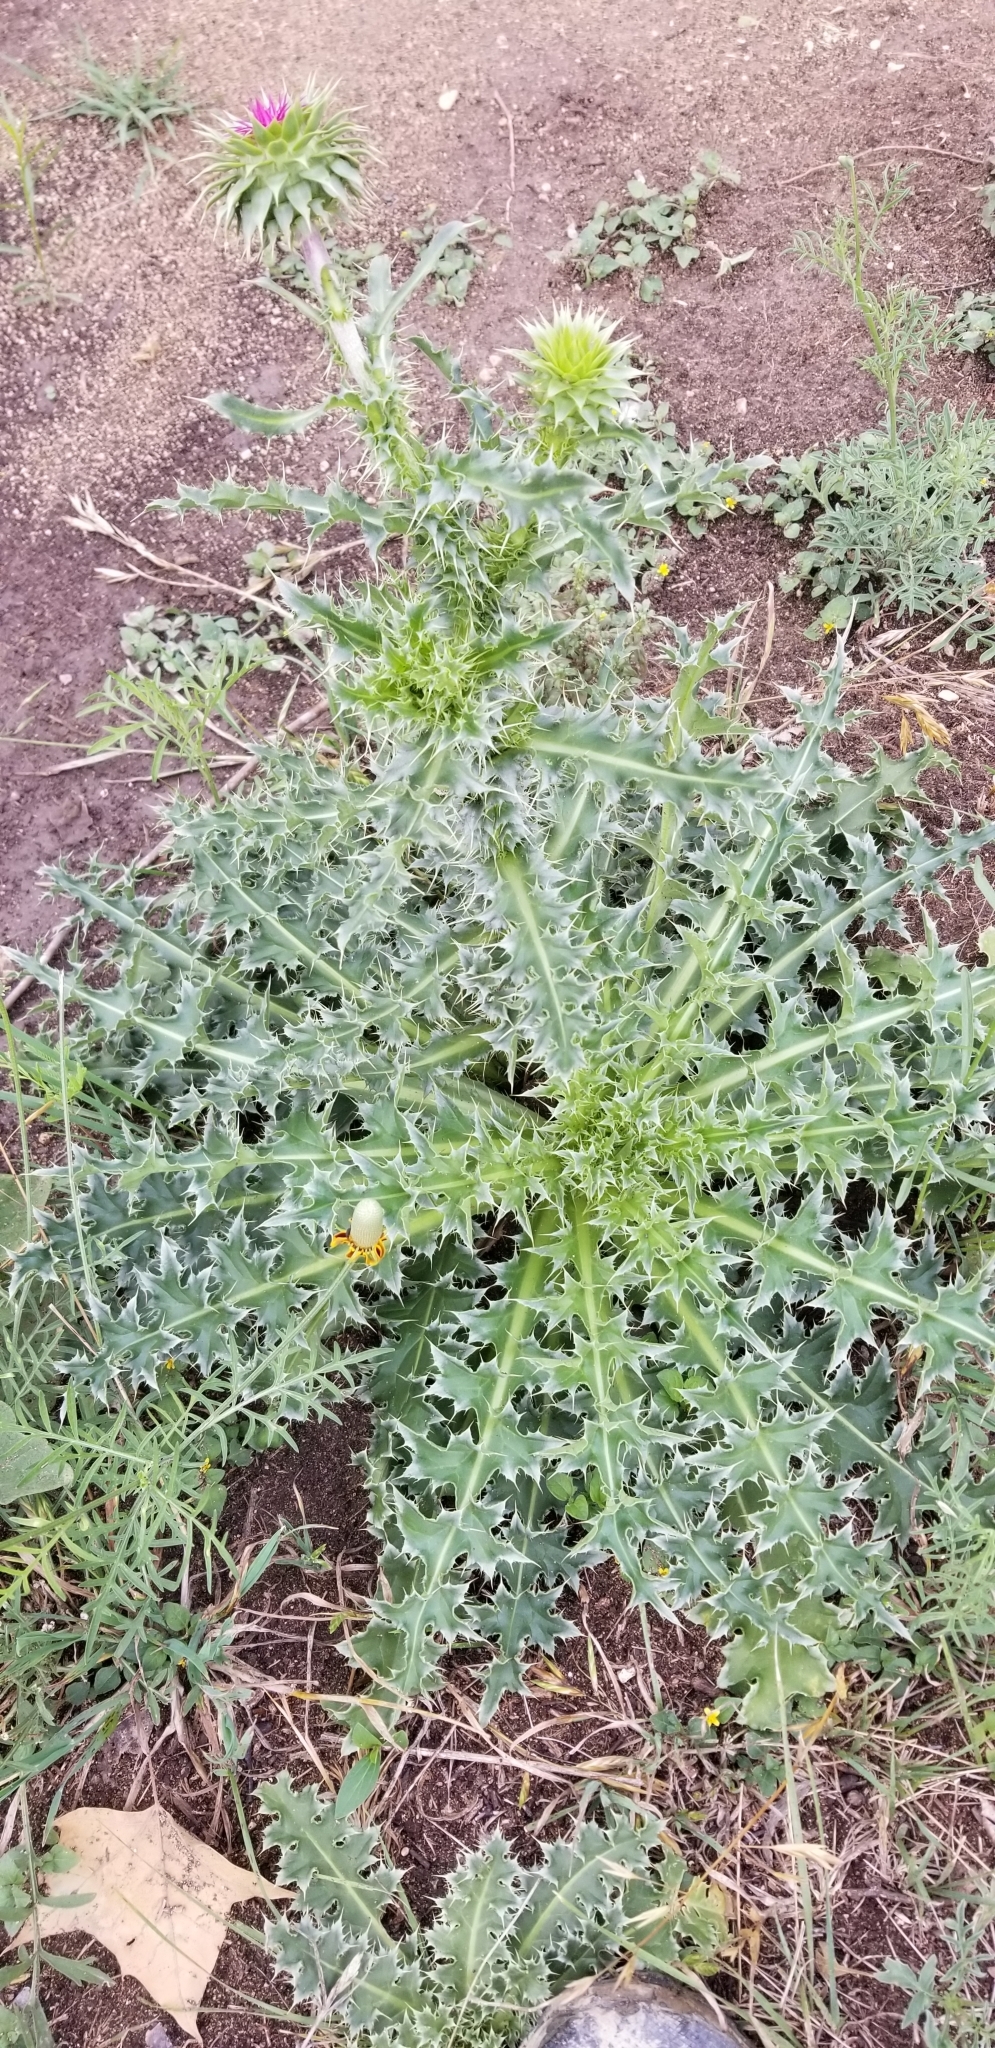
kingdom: Plantae
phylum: Tracheophyta
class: Magnoliopsida
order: Asterales
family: Asteraceae
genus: Carduus
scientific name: Carduus nutans
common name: Musk thistle
